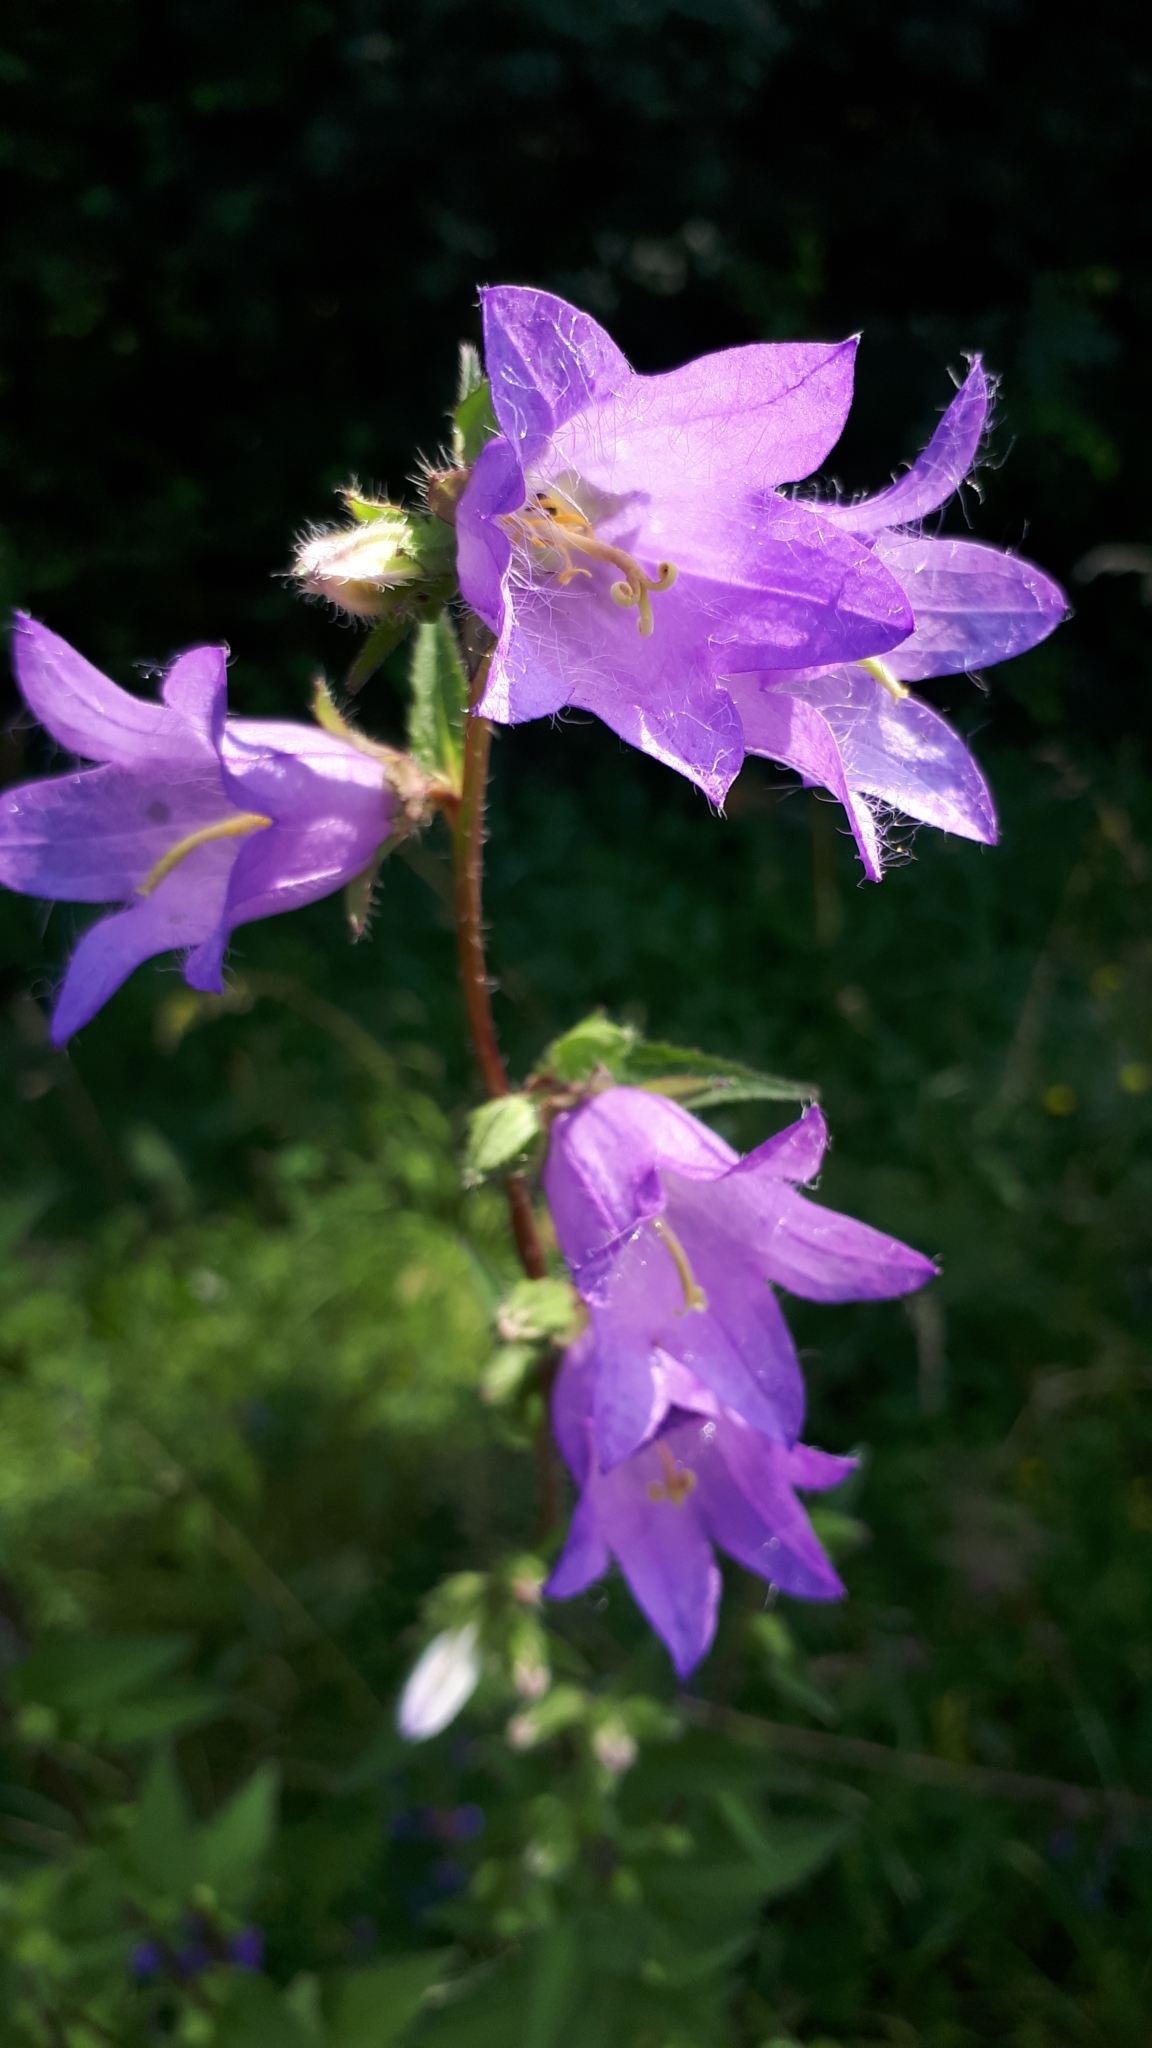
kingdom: Plantae
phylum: Tracheophyta
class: Magnoliopsida
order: Asterales
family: Campanulaceae
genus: Campanula
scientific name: Campanula trachelium
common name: Nettle-leaved bellflower
